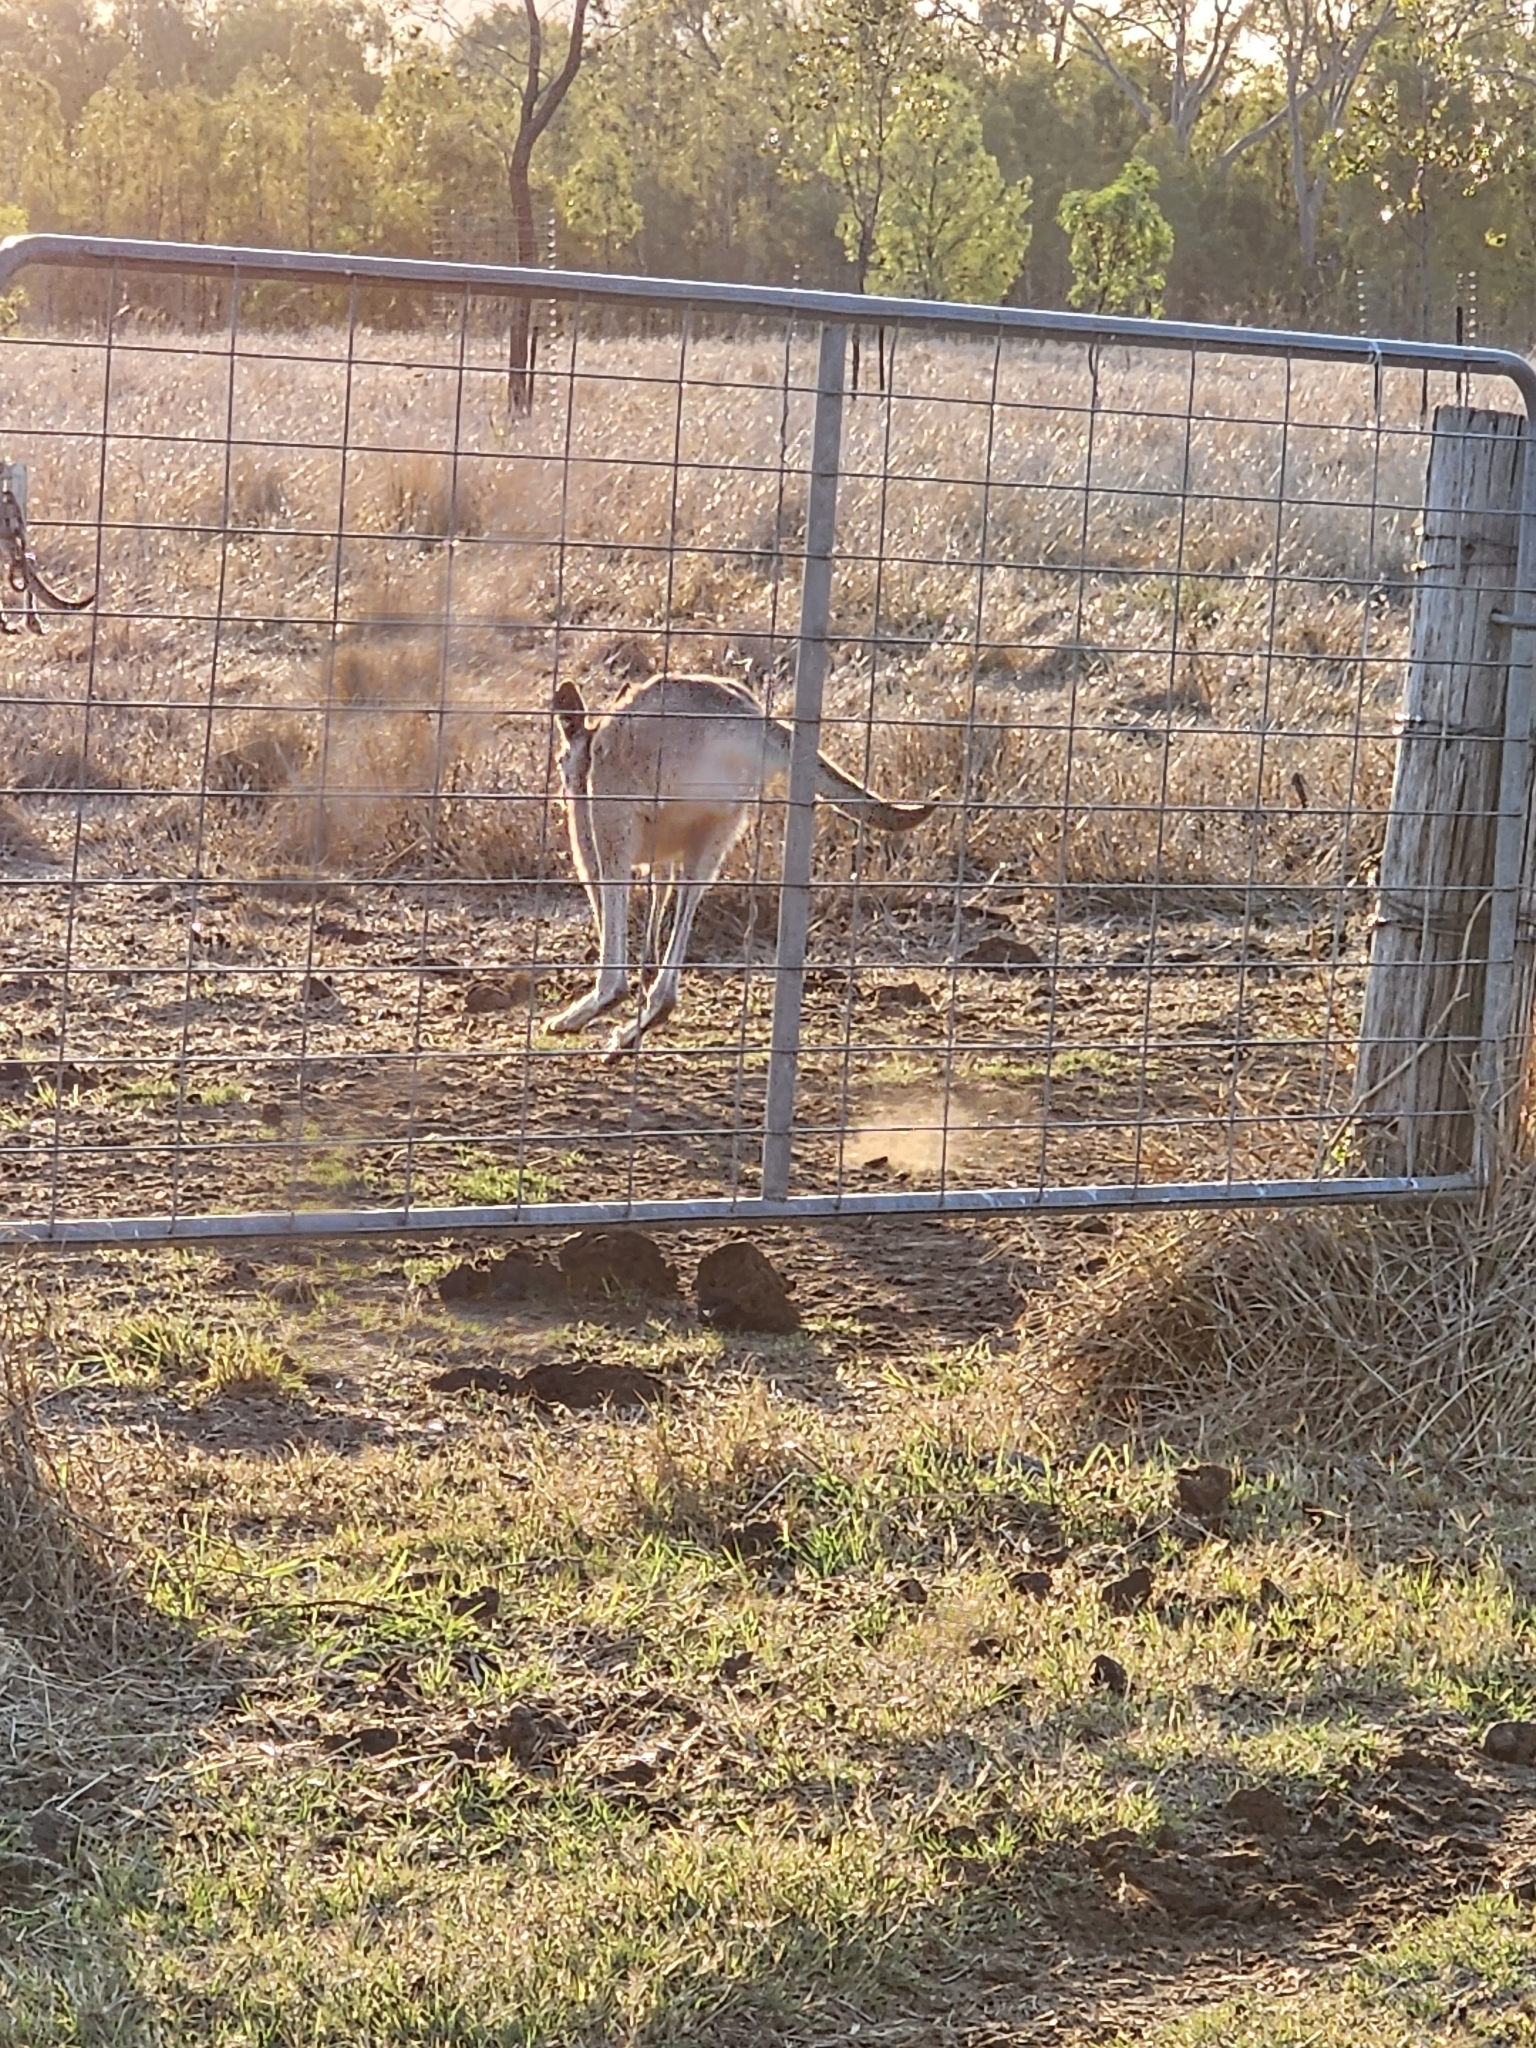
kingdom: Animalia
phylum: Chordata
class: Mammalia
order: Diprotodontia
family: Macropodidae
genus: Macropus
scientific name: Macropus giganteus
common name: Eastern grey kangaroo
